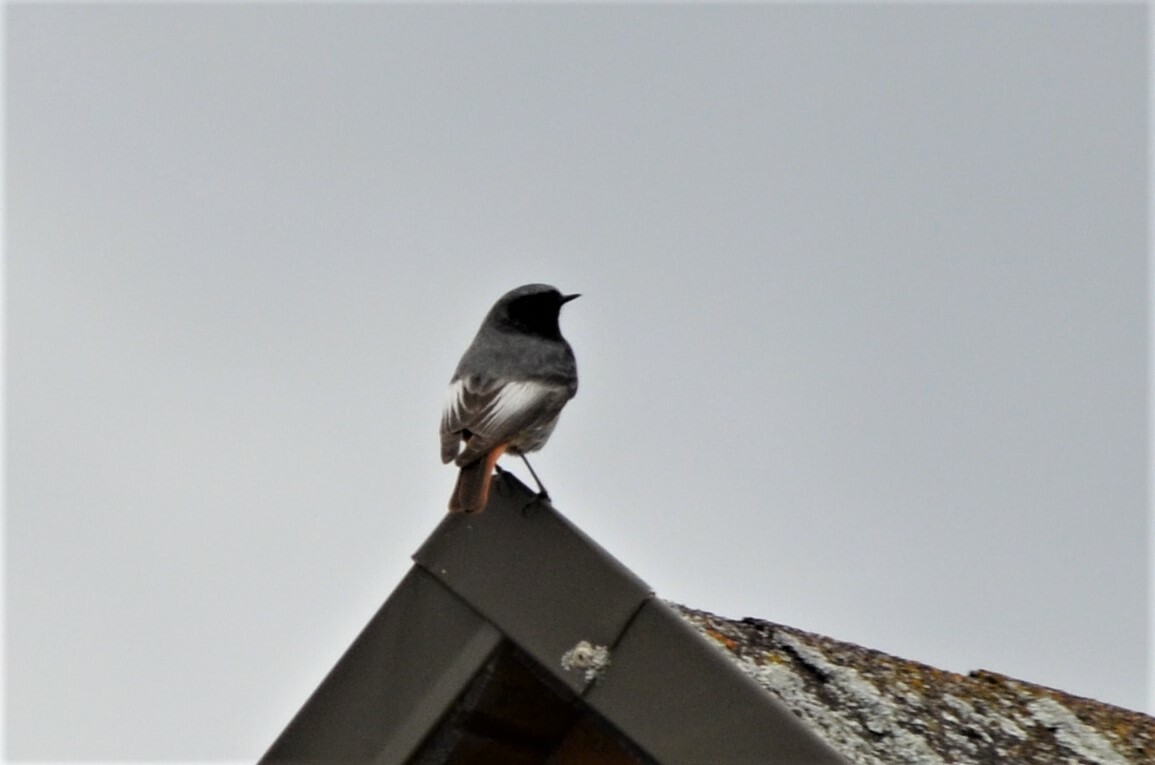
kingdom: Animalia
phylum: Chordata
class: Aves
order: Passeriformes
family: Muscicapidae
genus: Phoenicurus
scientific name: Phoenicurus ochruros
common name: Black redstart
